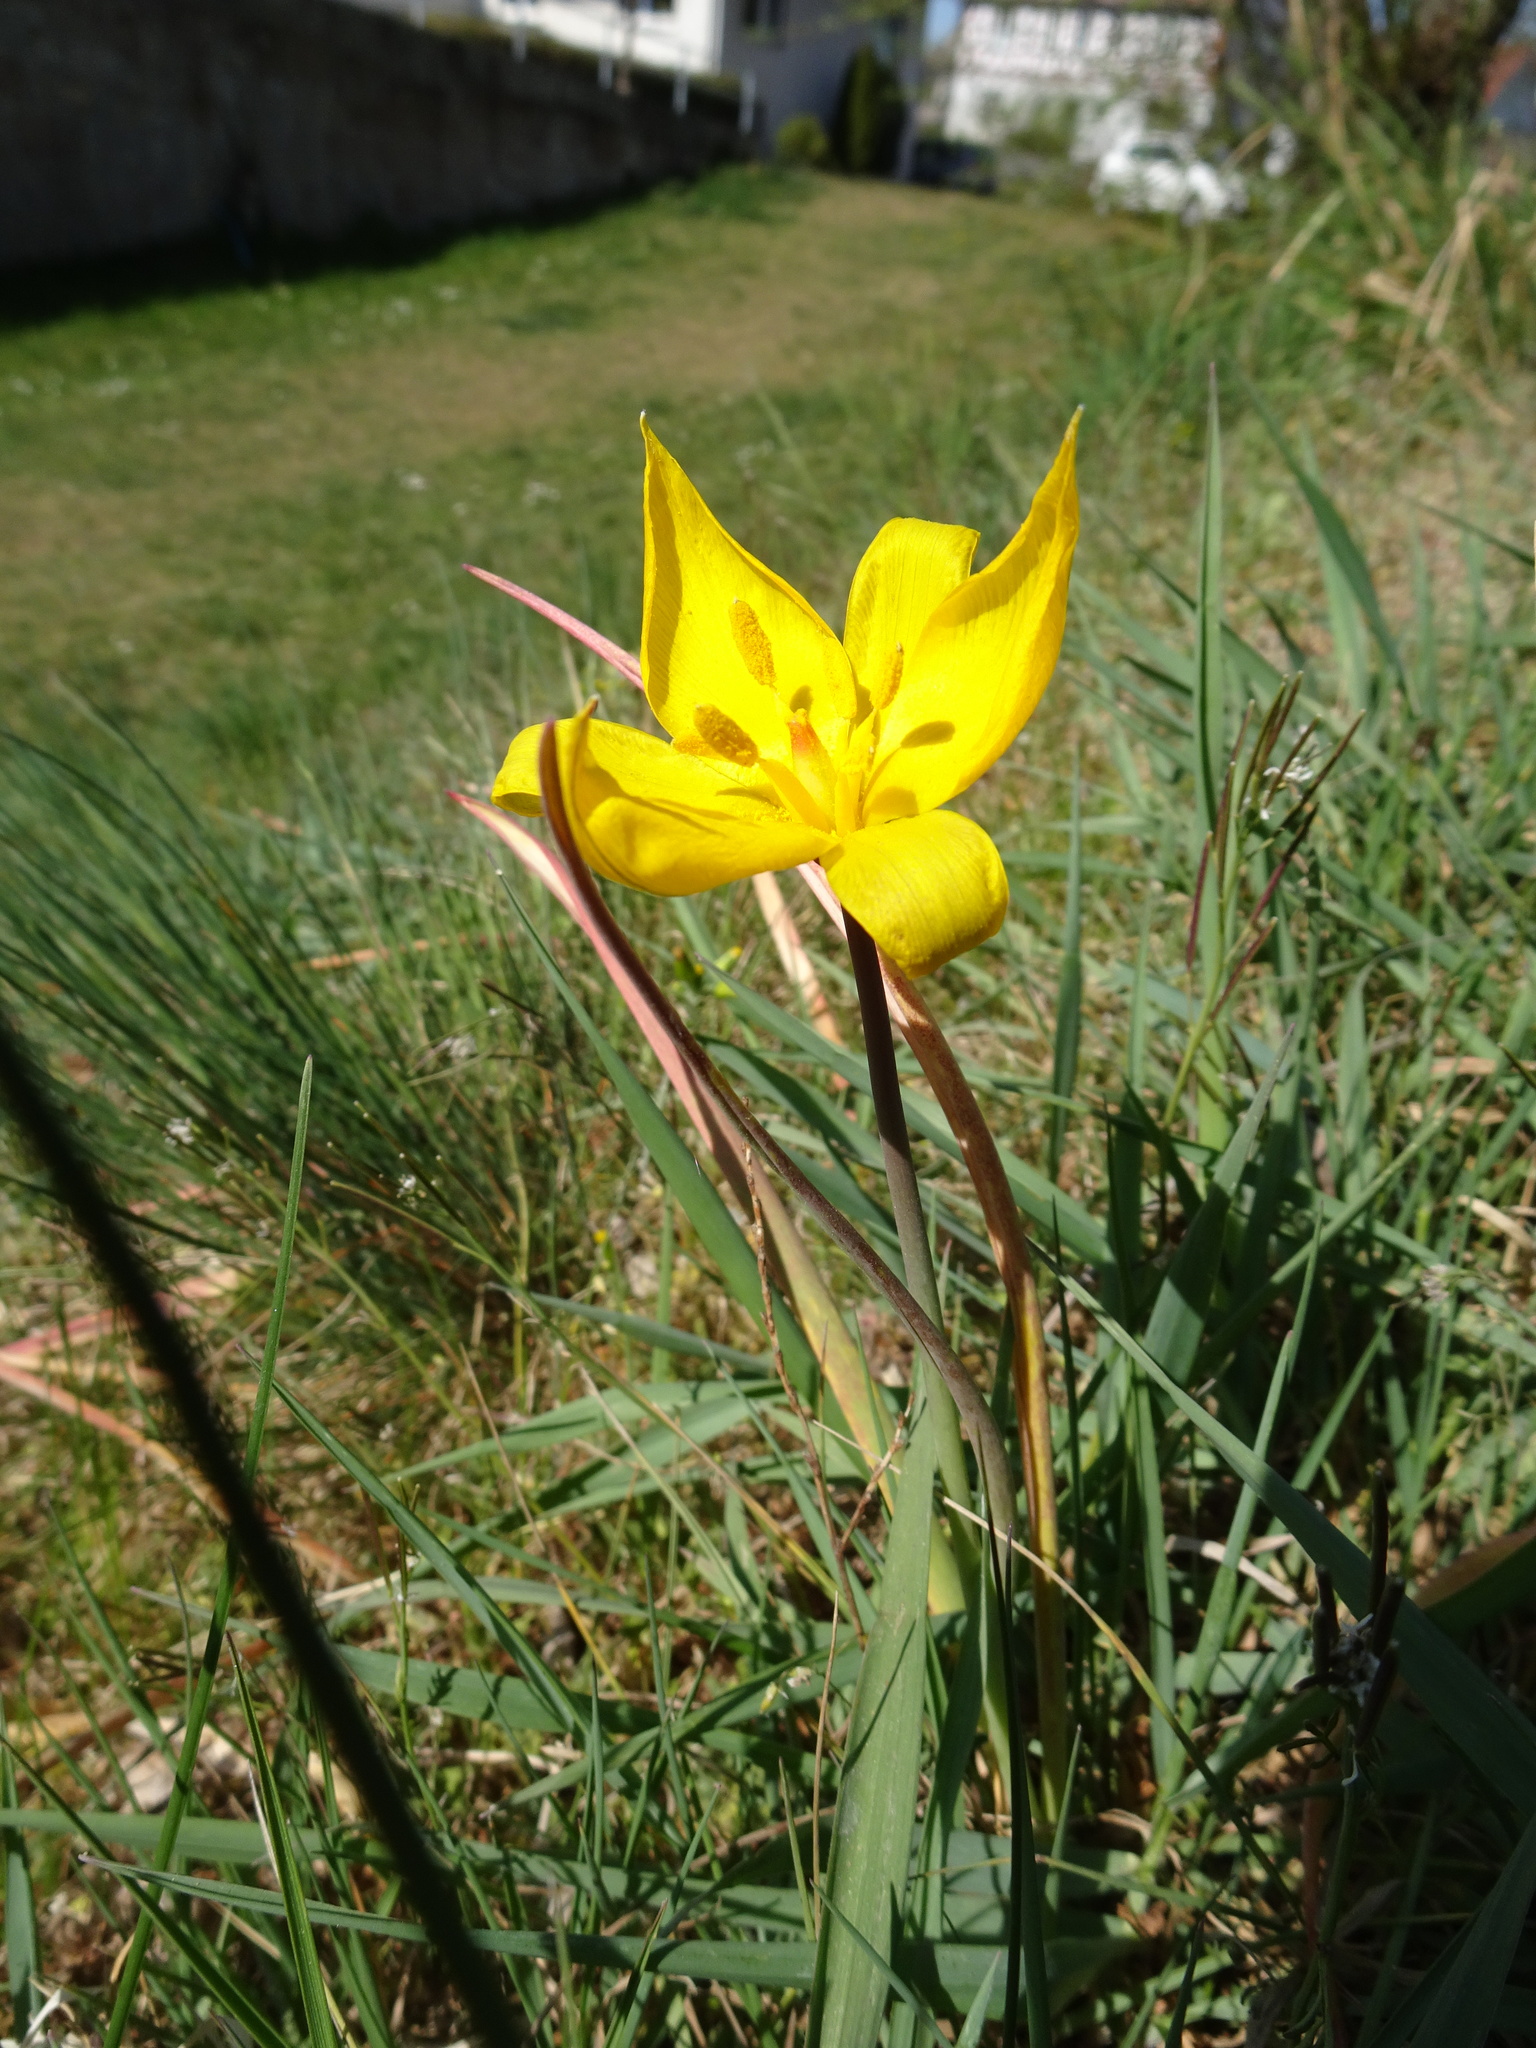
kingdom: Plantae
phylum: Tracheophyta
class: Liliopsida
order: Liliales
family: Liliaceae
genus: Tulipa
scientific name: Tulipa sylvestris
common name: Wild tulip
